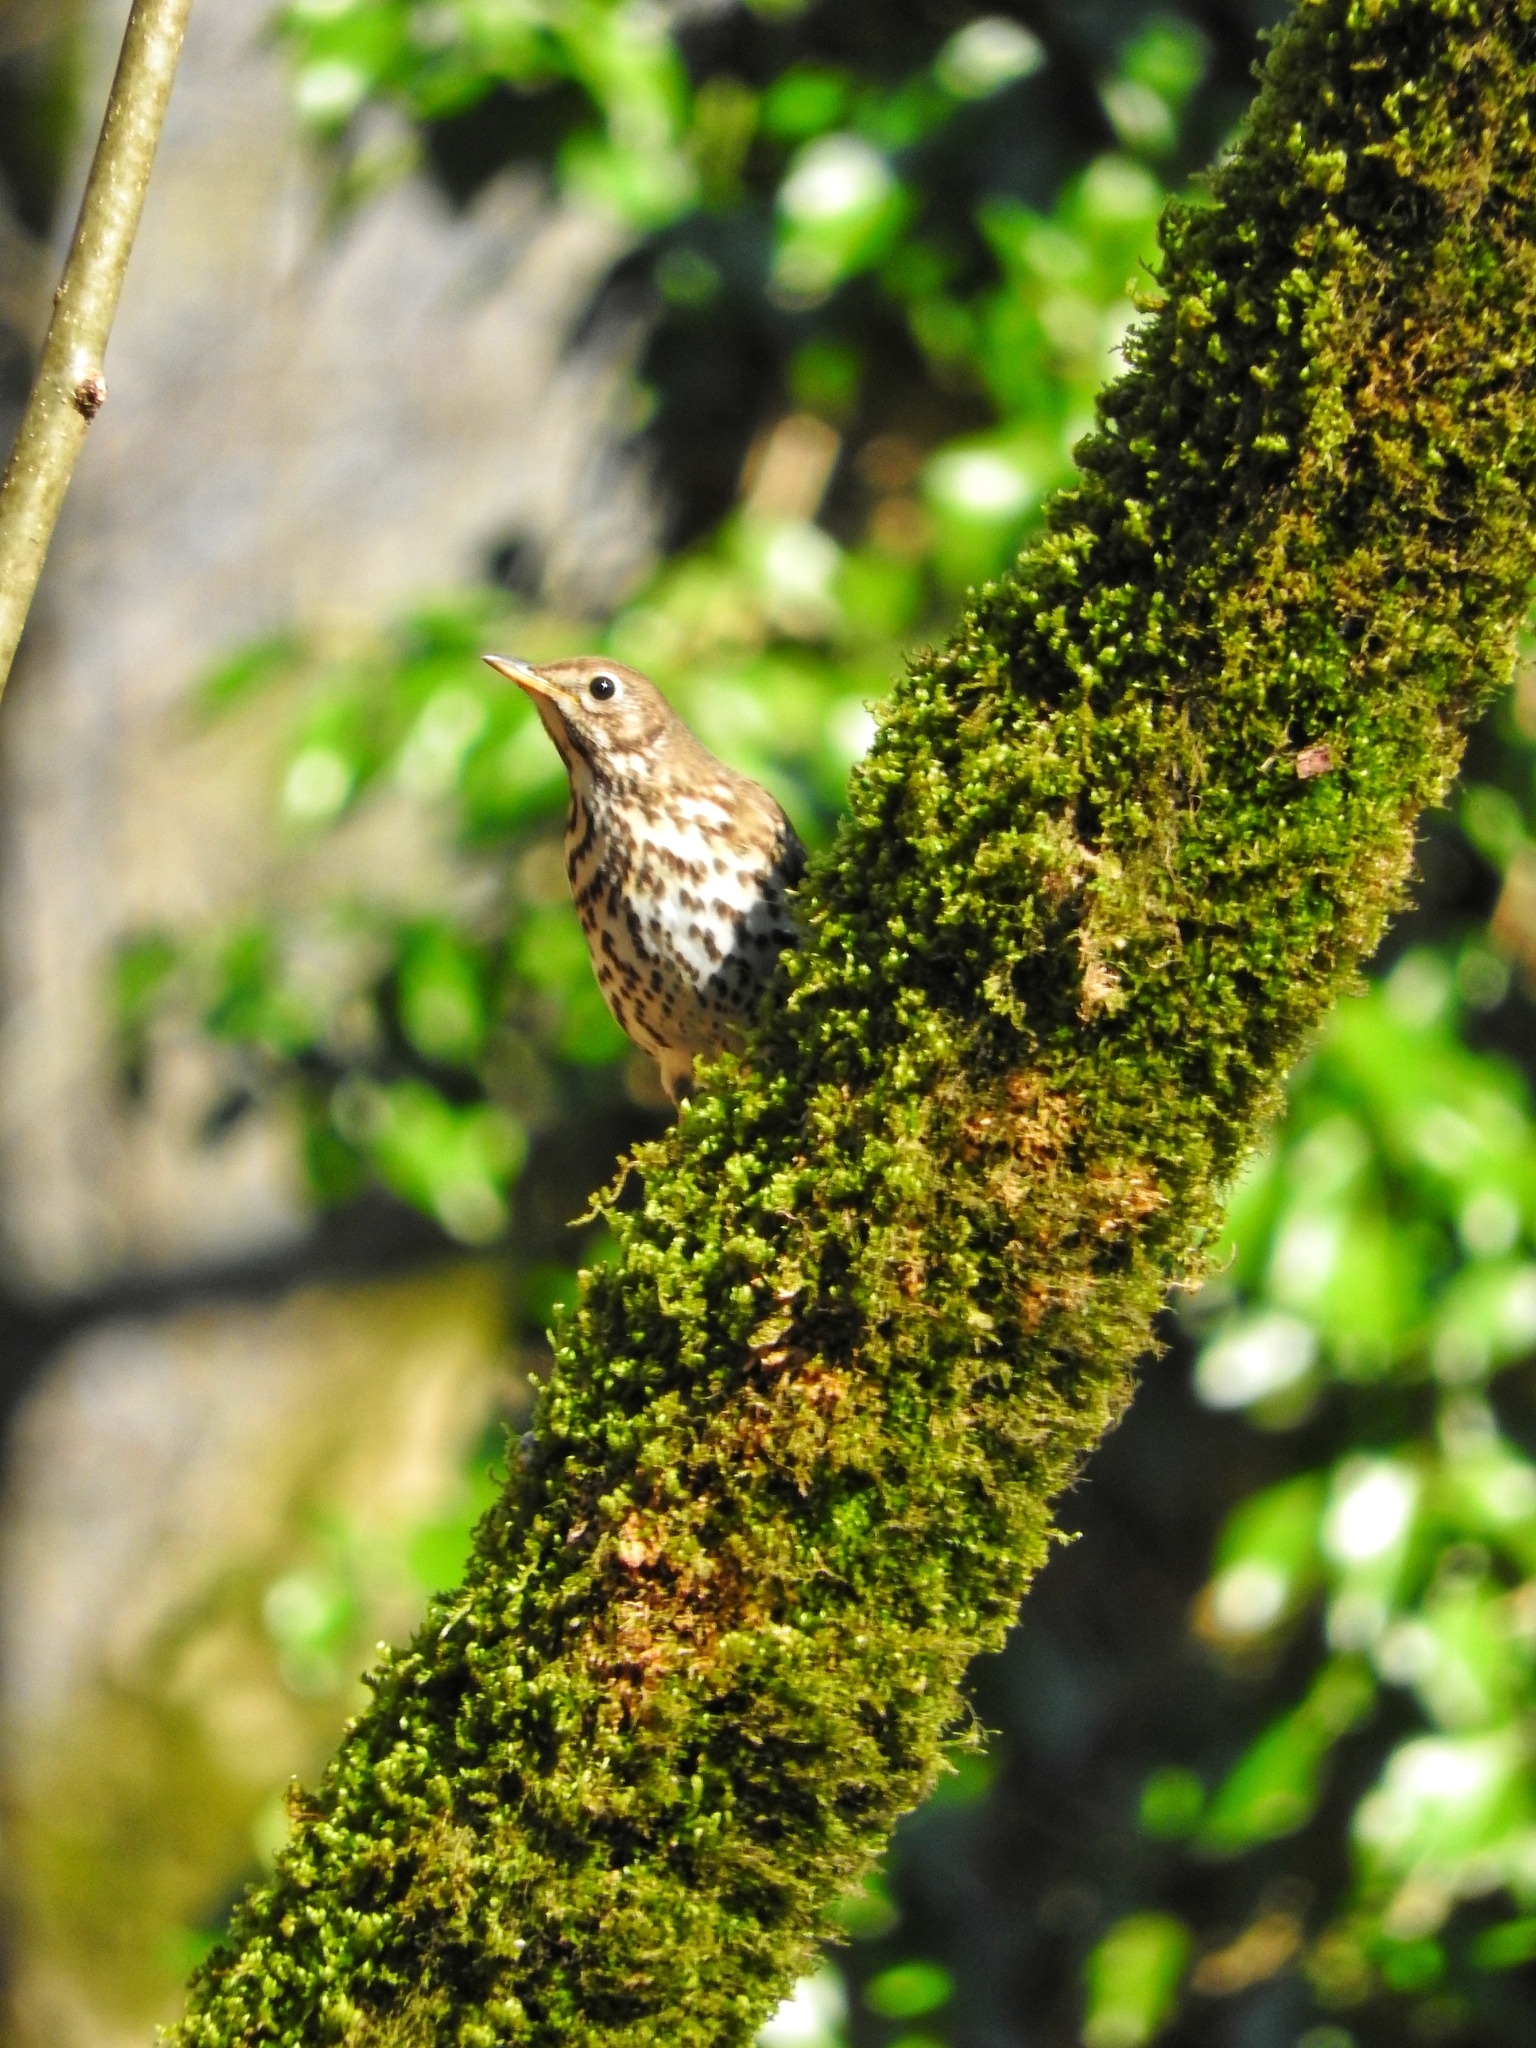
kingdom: Animalia
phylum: Chordata
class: Aves
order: Passeriformes
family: Turdidae
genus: Turdus
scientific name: Turdus philomelos
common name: Song thrush
